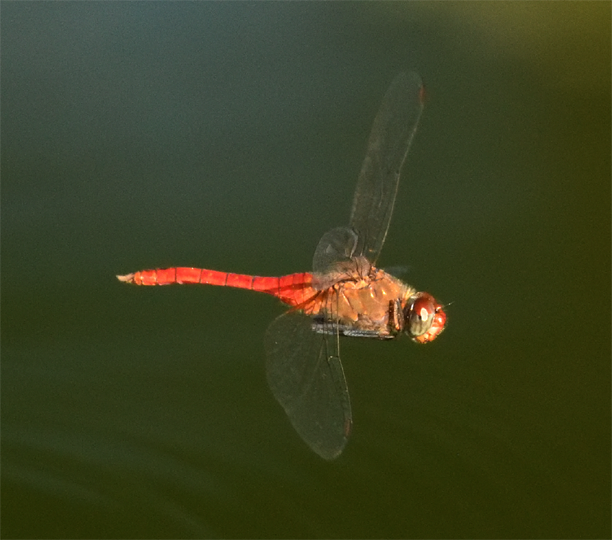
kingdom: Animalia
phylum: Arthropoda
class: Insecta
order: Odonata
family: Libellulidae
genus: Brachymesia
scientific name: Brachymesia furcata
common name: Red-taled pennant
